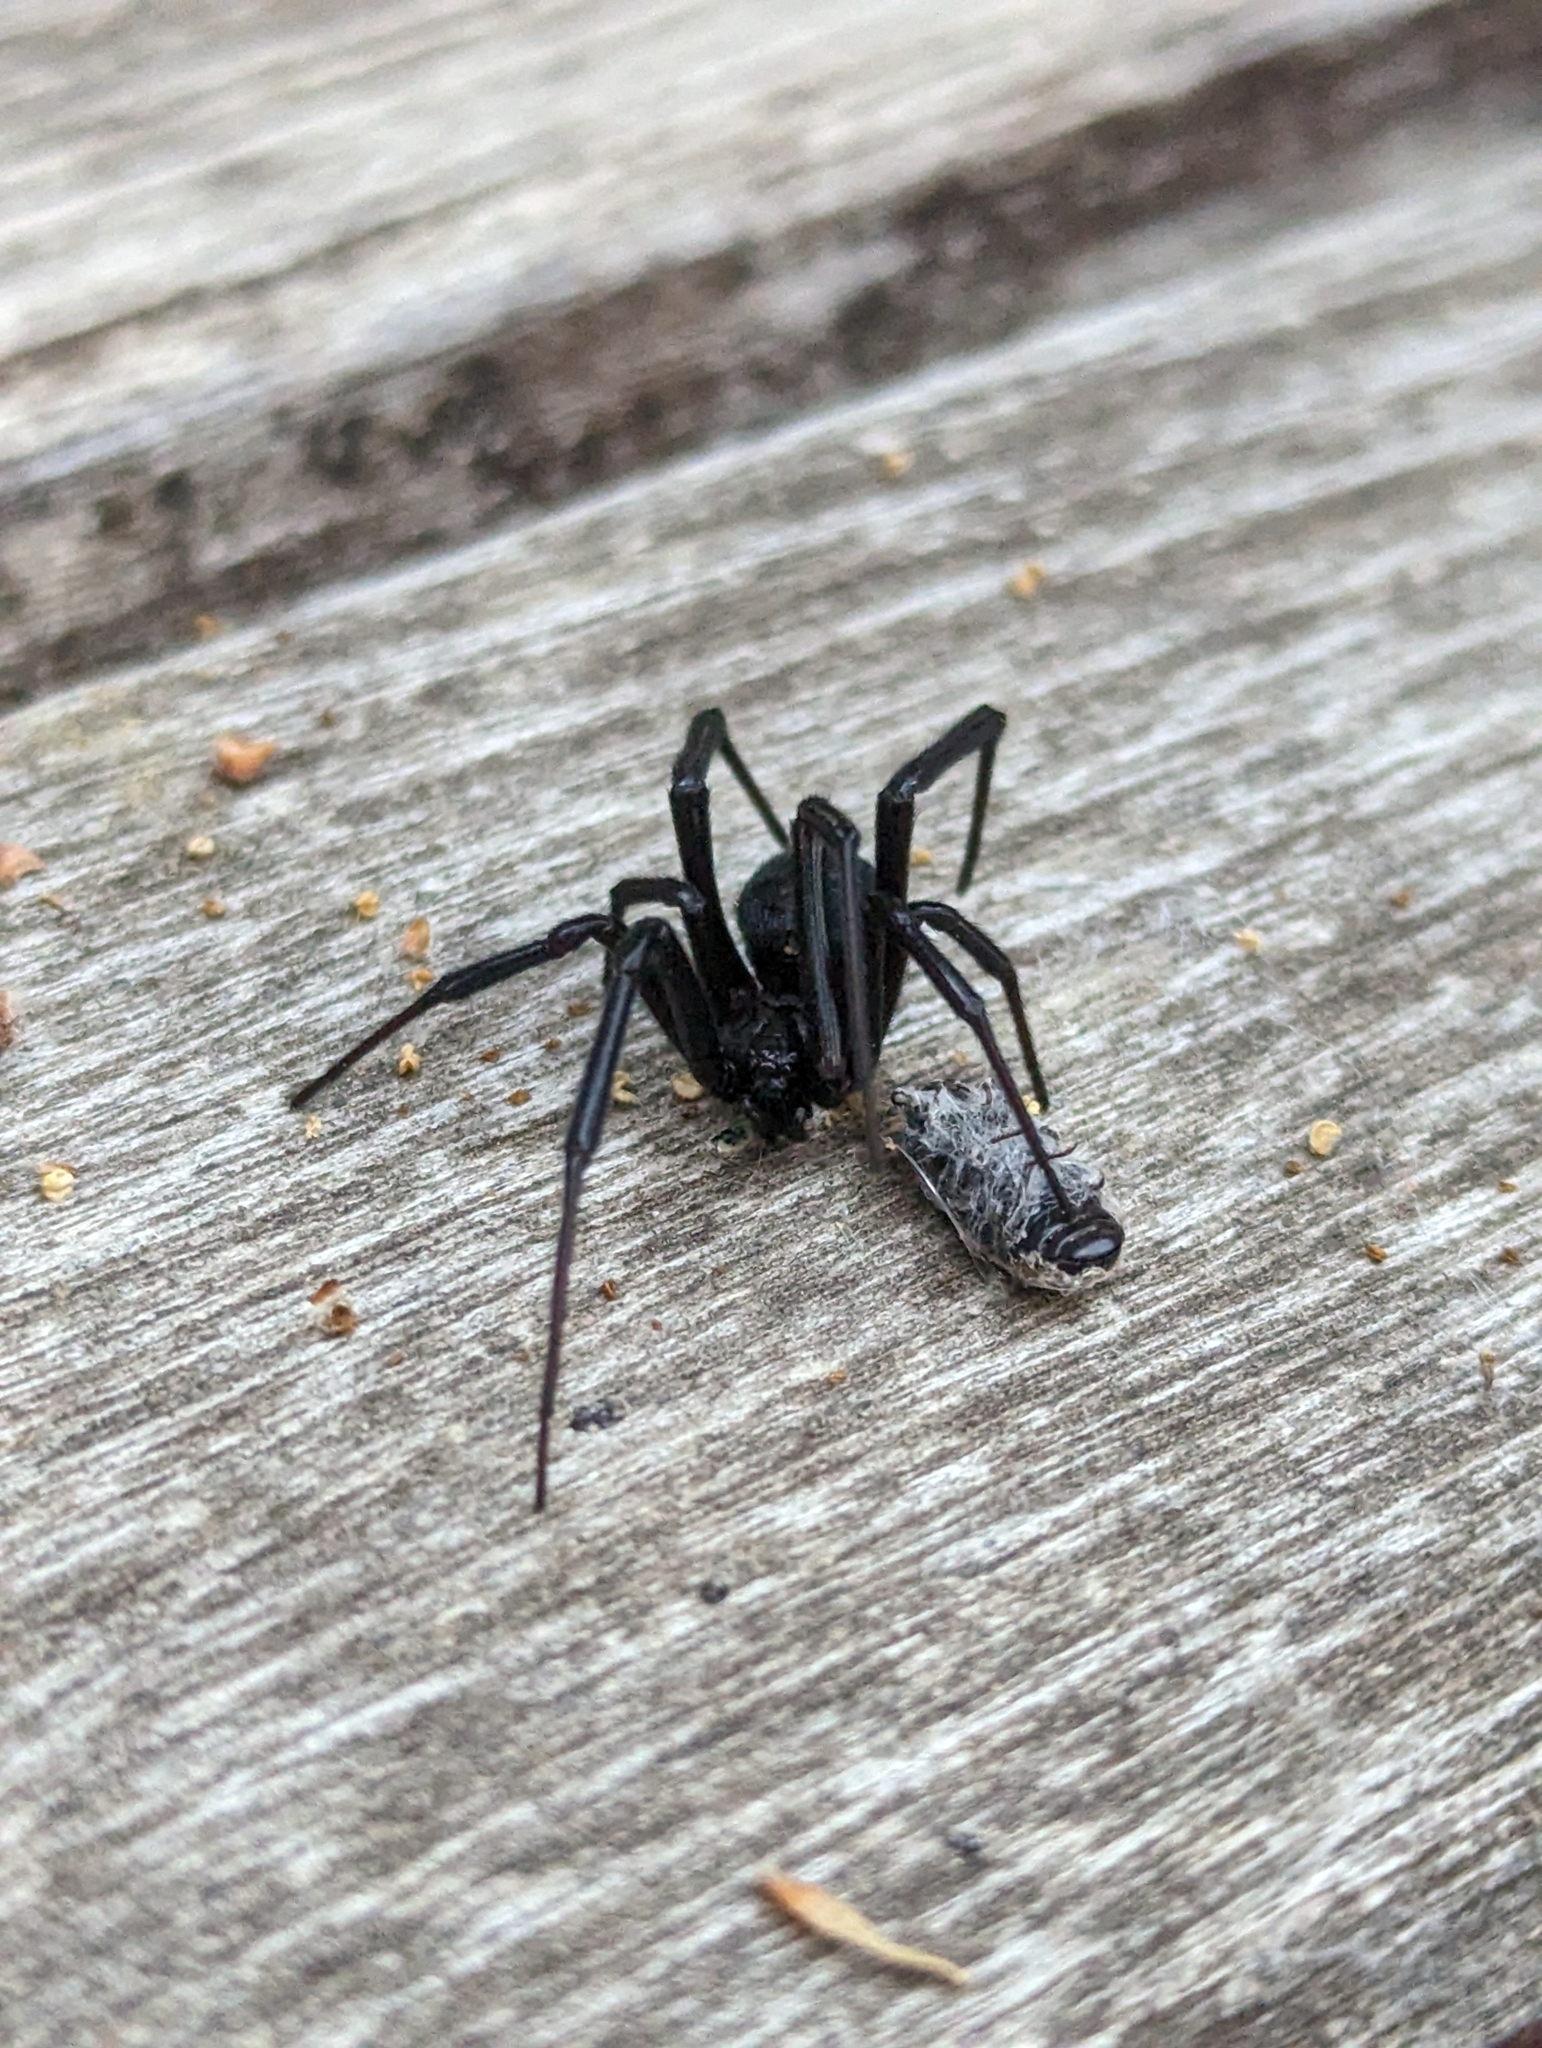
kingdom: Animalia
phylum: Arthropoda
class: Arachnida
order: Araneae
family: Theridiidae
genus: Latrodectus
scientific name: Latrodectus hesperus
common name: Western black widow
